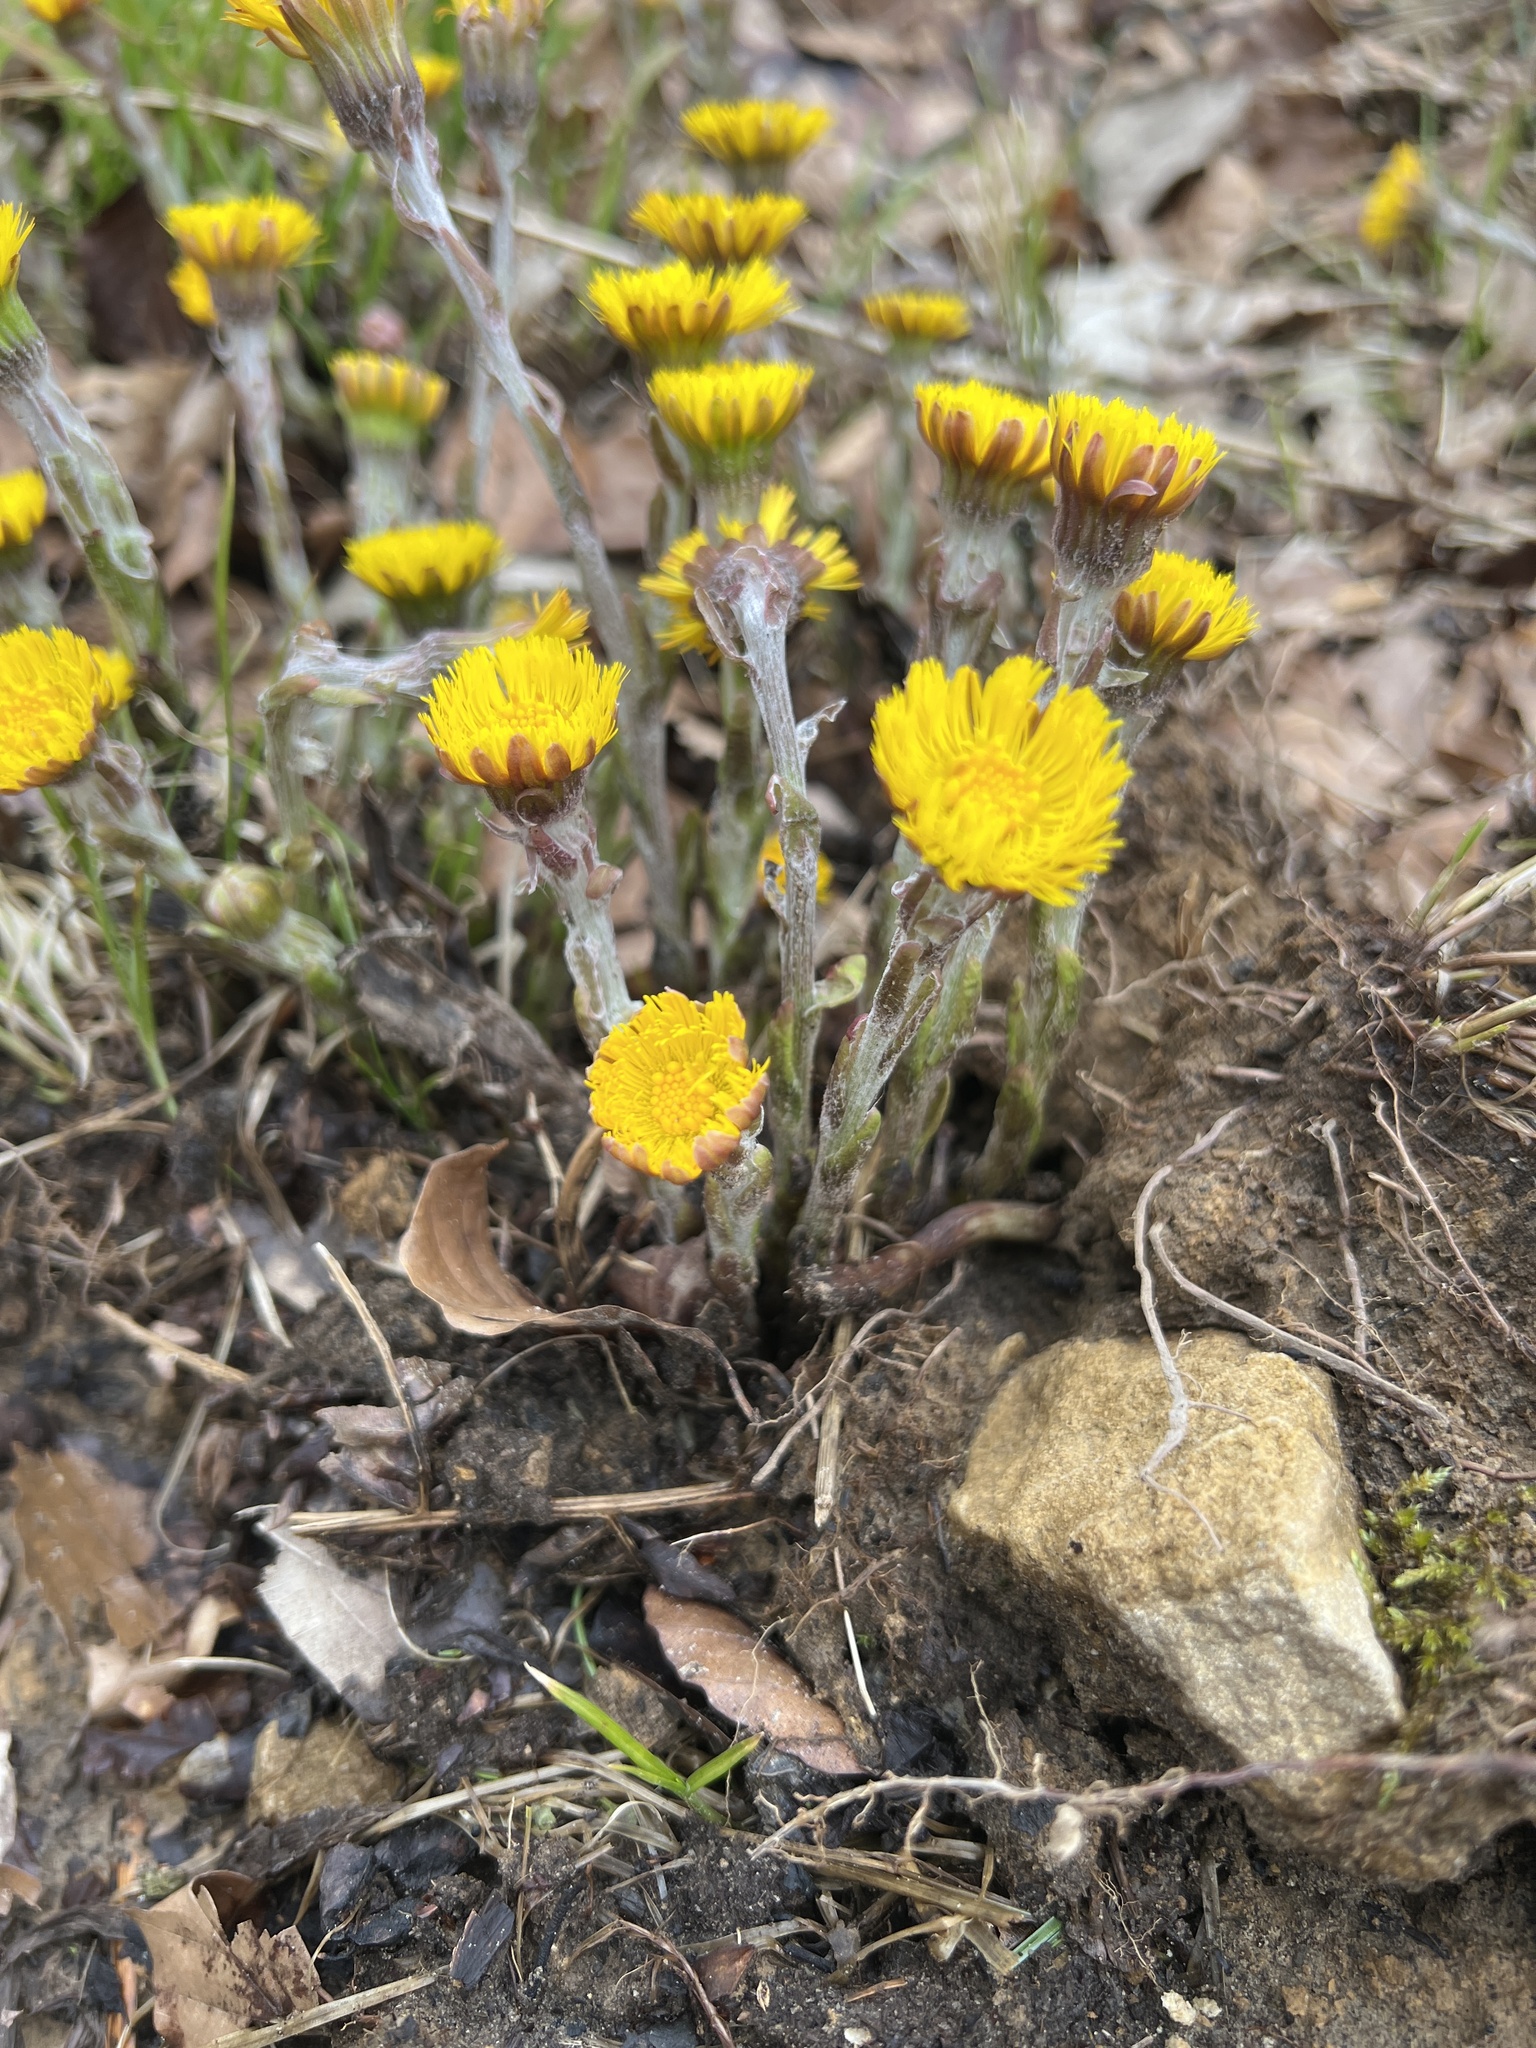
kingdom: Plantae
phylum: Tracheophyta
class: Magnoliopsida
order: Asterales
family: Asteraceae
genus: Tussilago
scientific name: Tussilago farfara
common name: Coltsfoot
